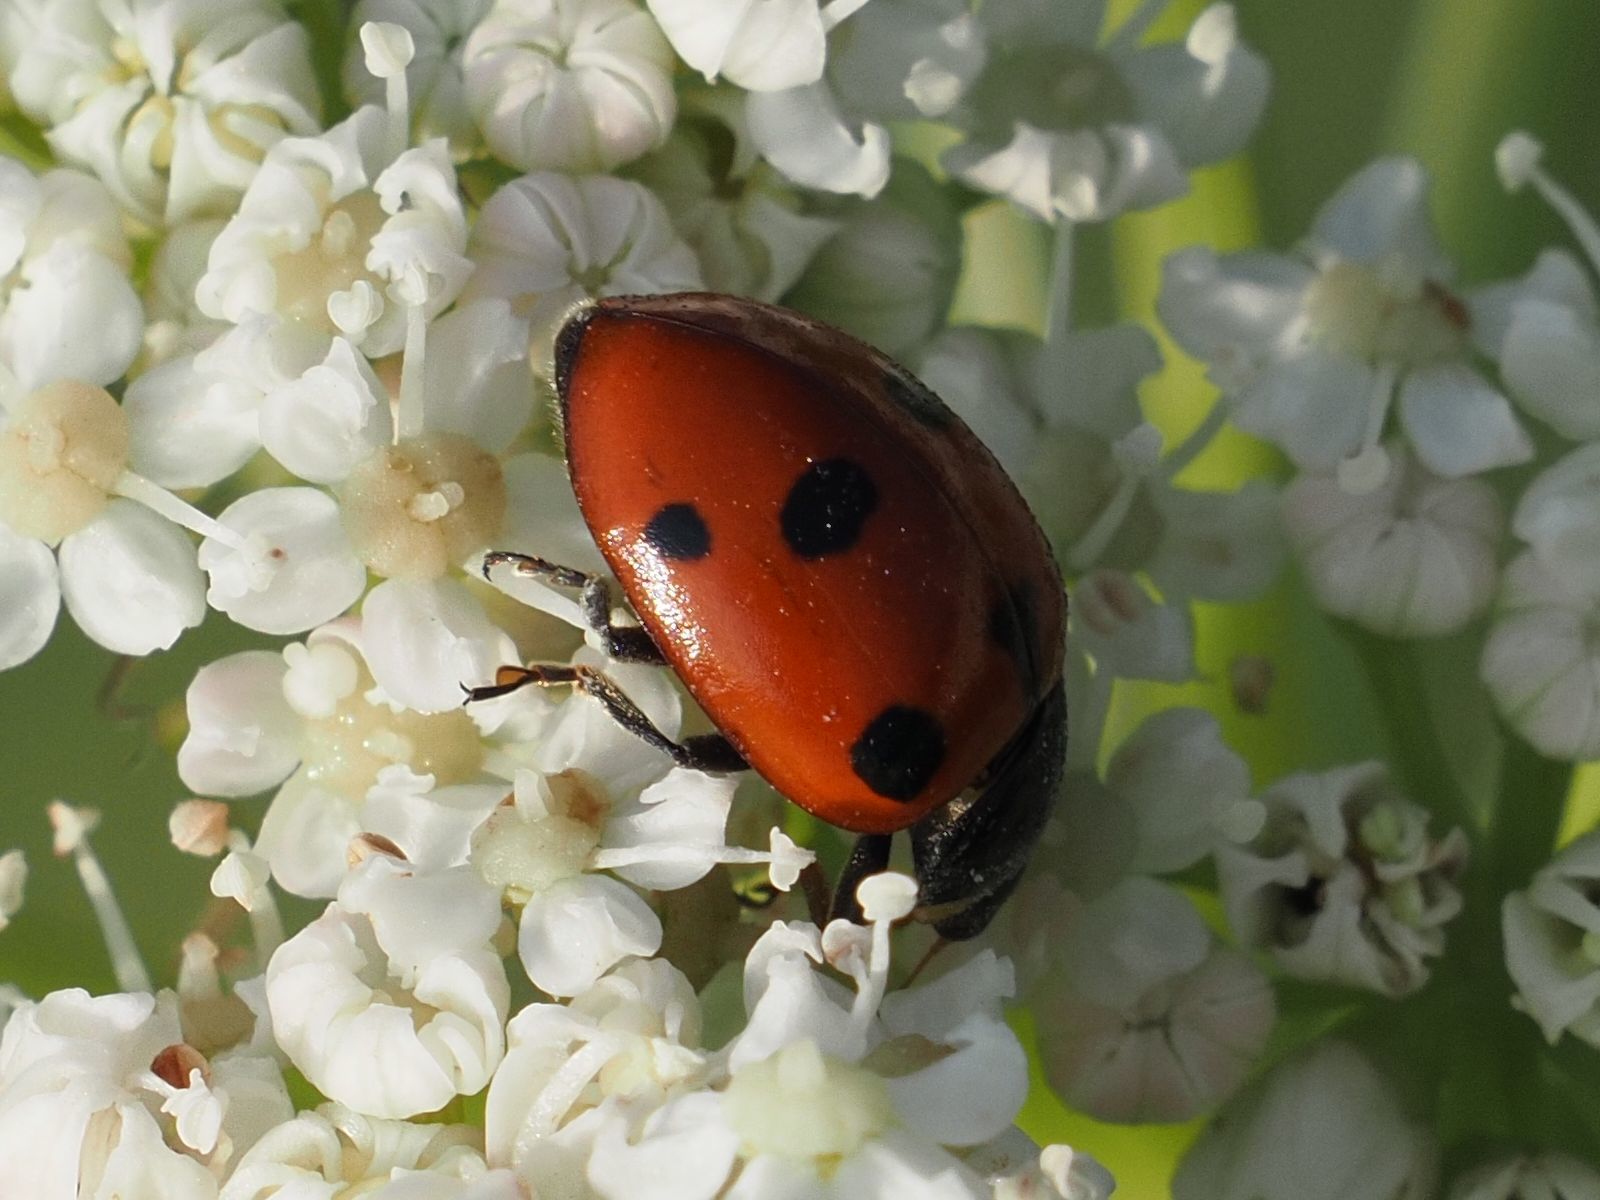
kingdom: Animalia
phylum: Arthropoda
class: Insecta
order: Coleoptera
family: Coccinellidae
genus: Ceratomegilla
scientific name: Ceratomegilla undecimnotata
